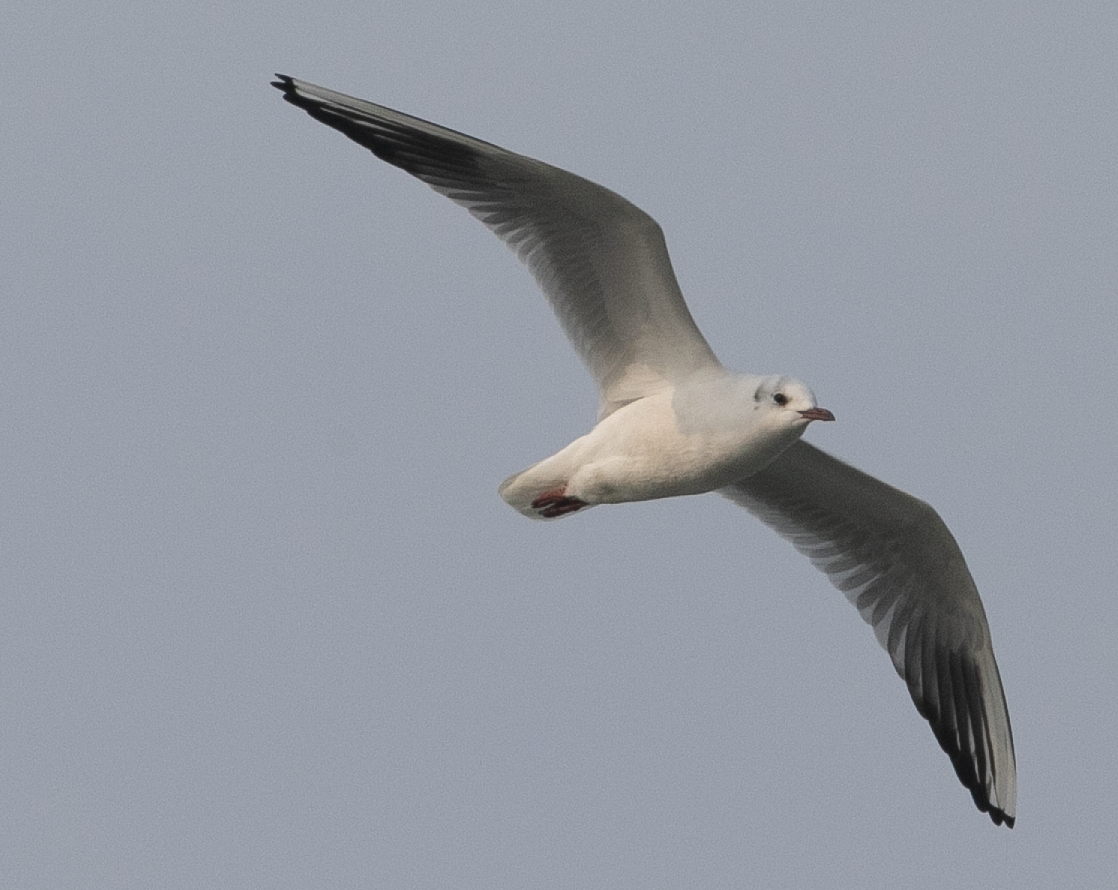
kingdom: Animalia
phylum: Chordata
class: Aves
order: Charadriiformes
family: Laridae
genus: Chroicocephalus
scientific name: Chroicocephalus ridibundus
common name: Black-headed gull
